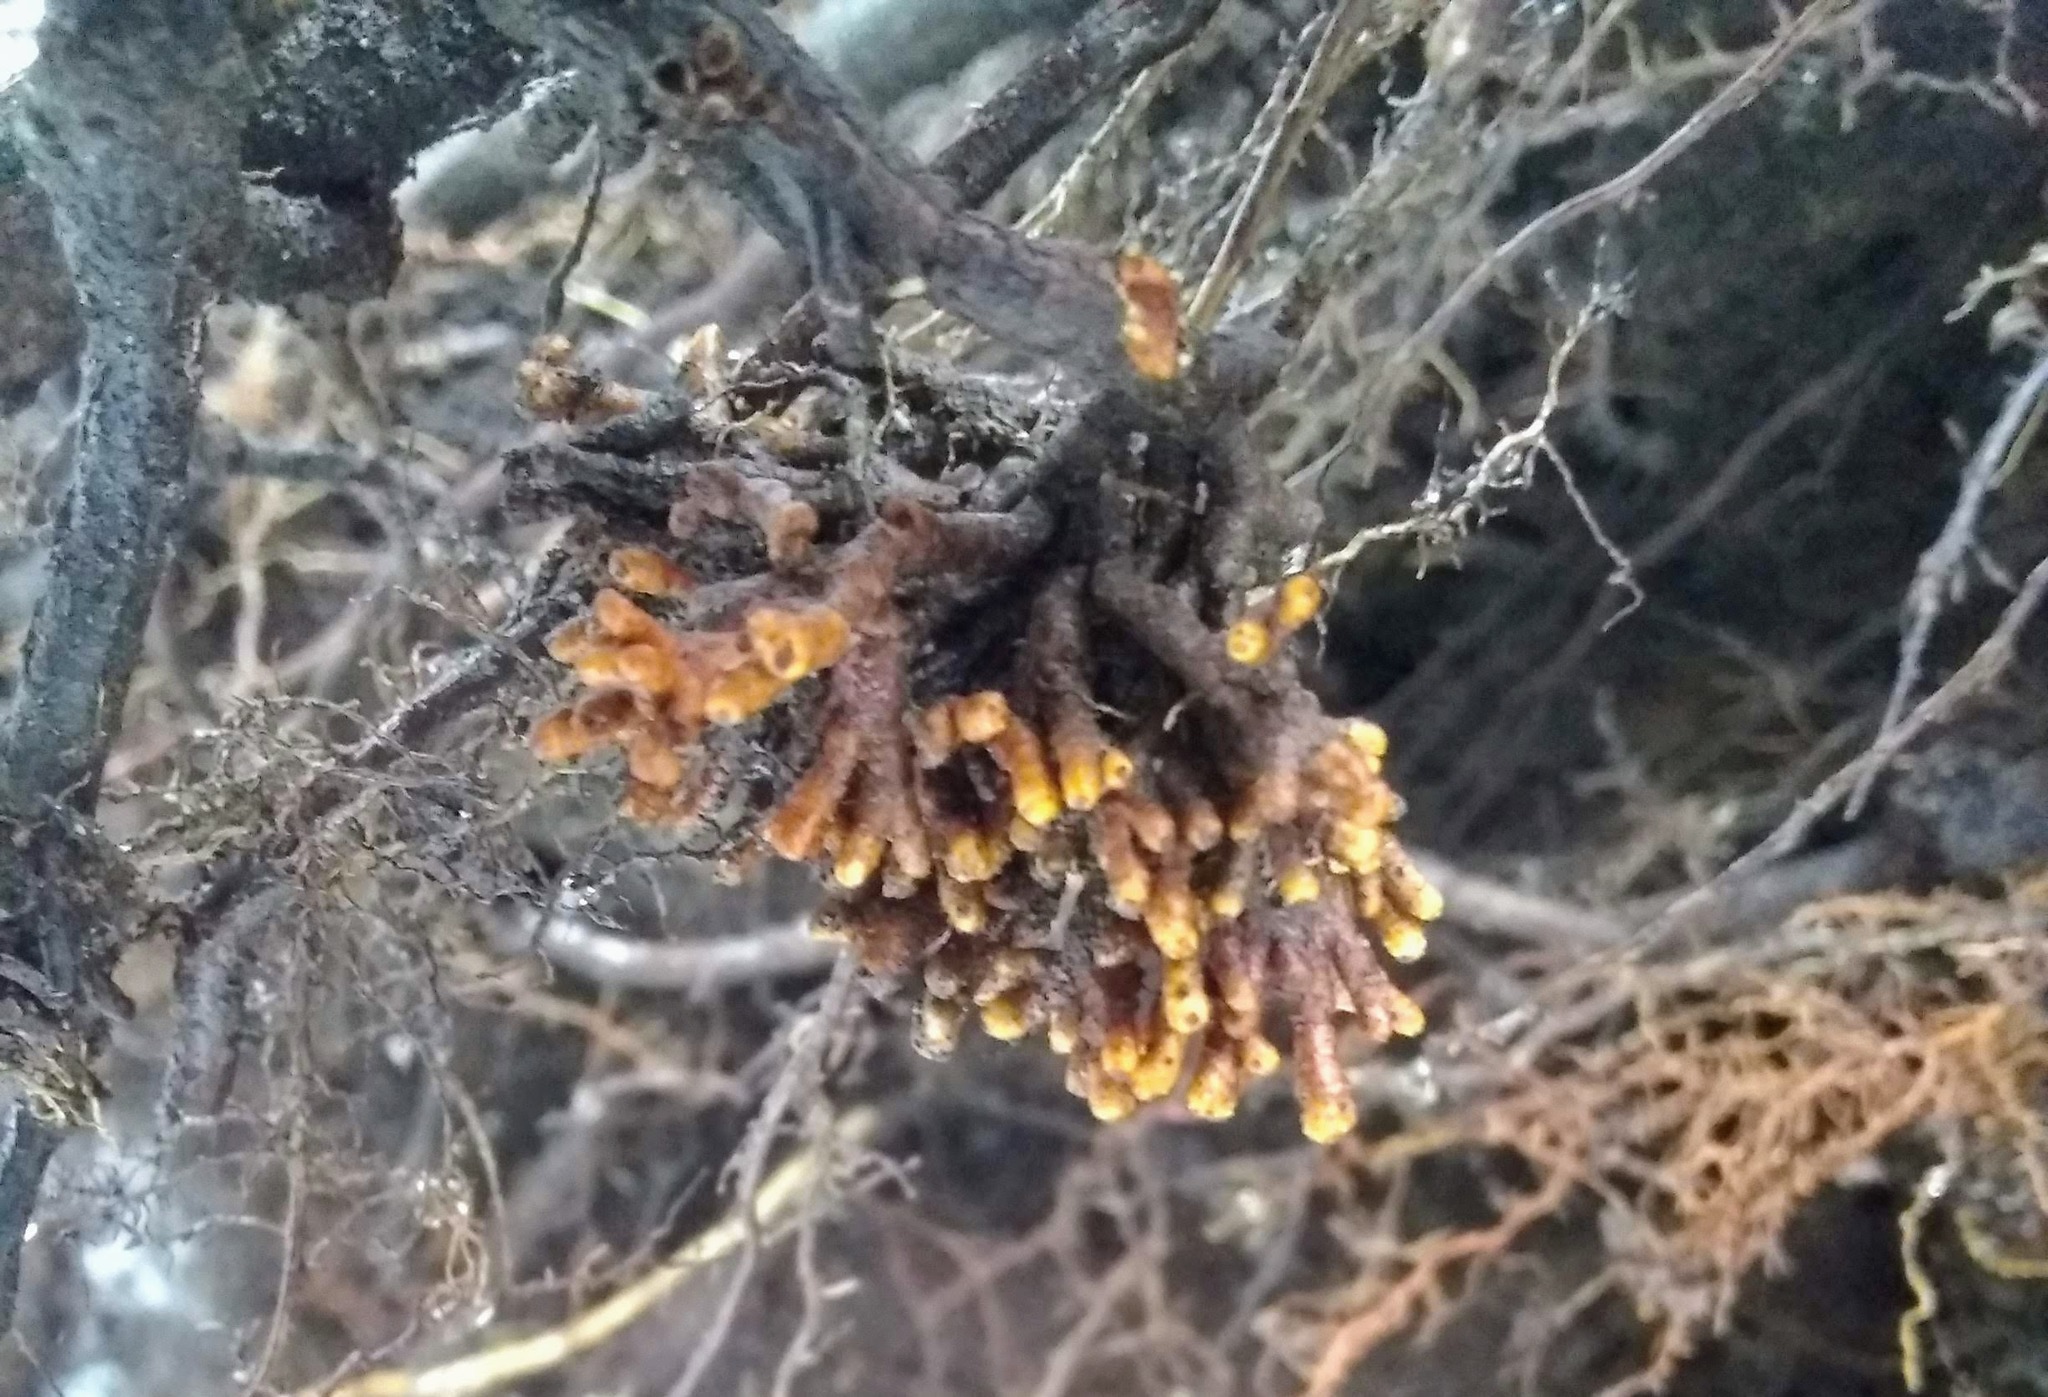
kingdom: Bacteria
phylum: Actinobacteriota
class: Actinomycetia
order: Mycobacteriales
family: Frankiaceae
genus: Frankia
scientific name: Frankia alni
